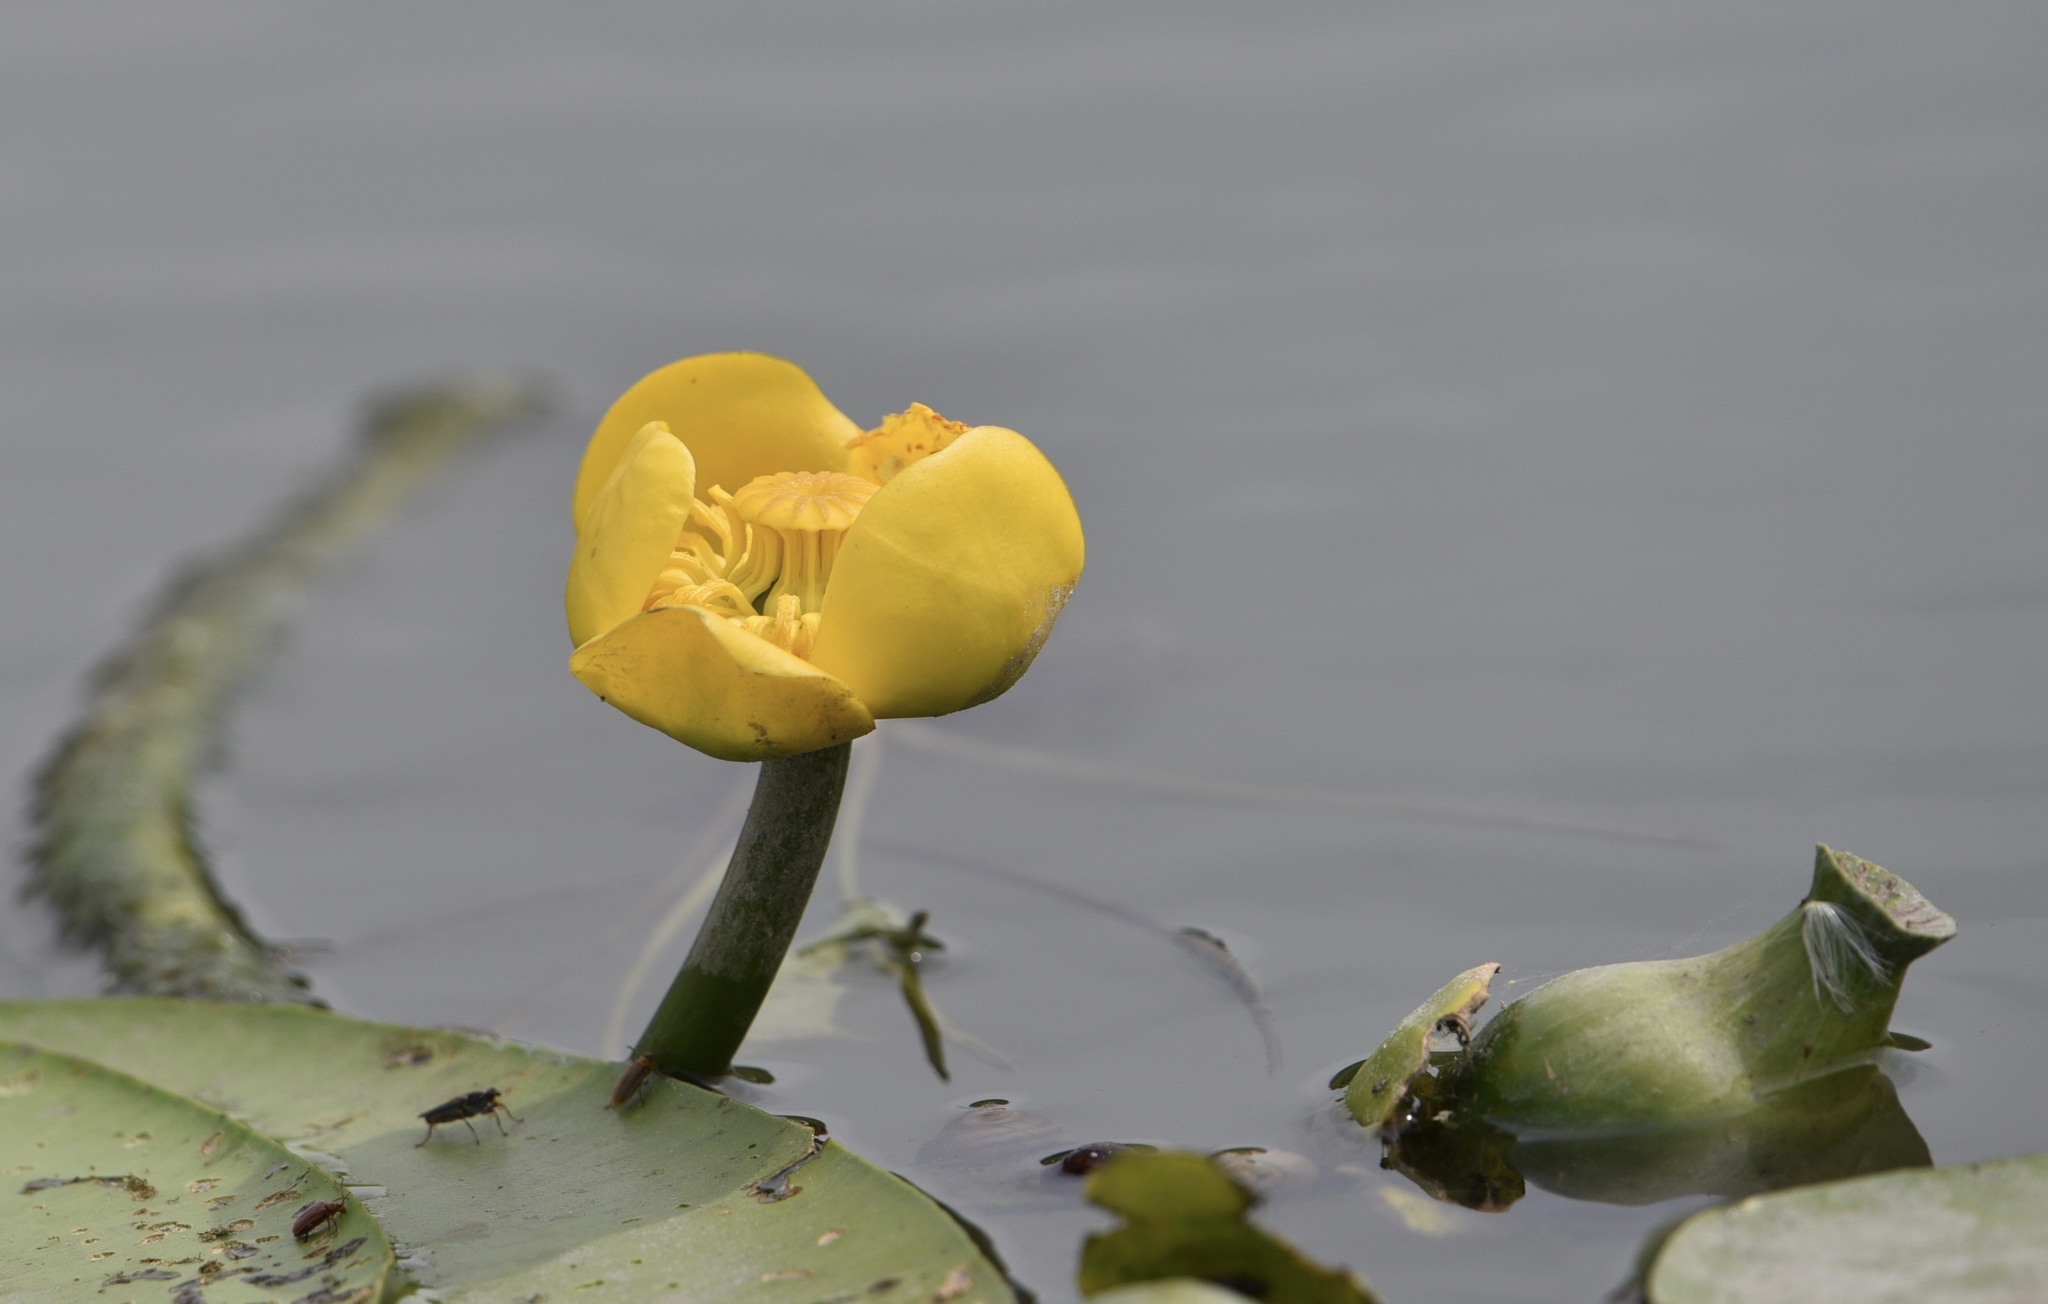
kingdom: Plantae
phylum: Tracheophyta
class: Magnoliopsida
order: Nymphaeales
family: Nymphaeaceae
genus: Nuphar
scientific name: Nuphar lutea
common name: Yellow water-lily
